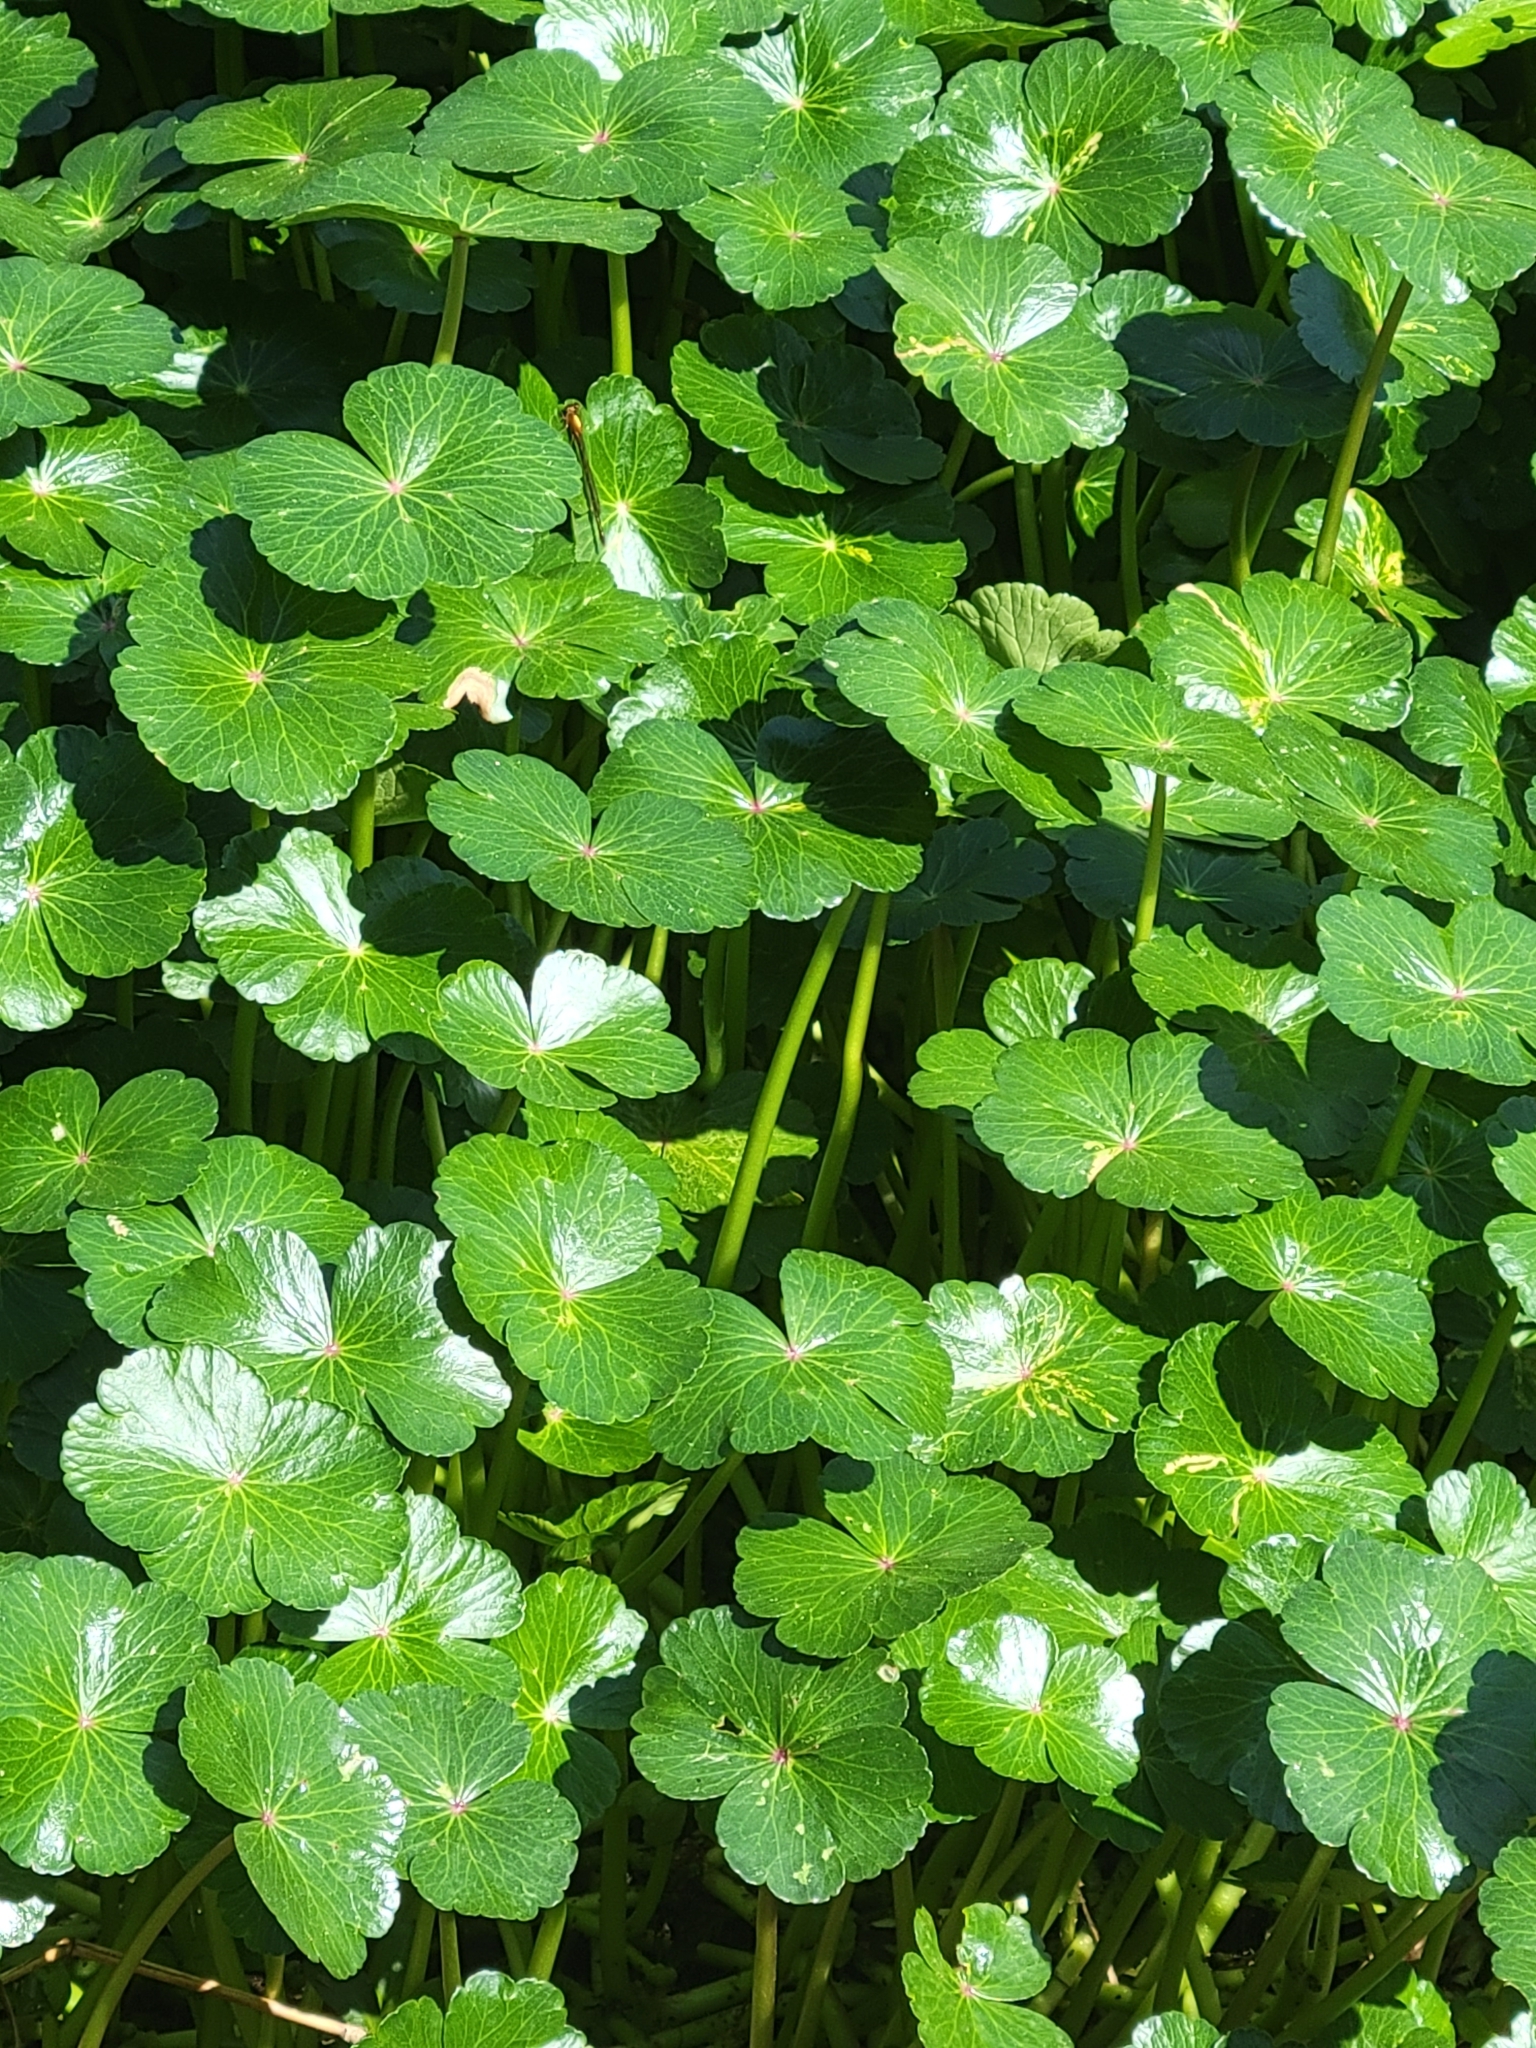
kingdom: Plantae
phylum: Tracheophyta
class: Magnoliopsida
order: Apiales
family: Araliaceae
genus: Hydrocotyle
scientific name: Hydrocotyle ranunculoides
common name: Floating pennywort
